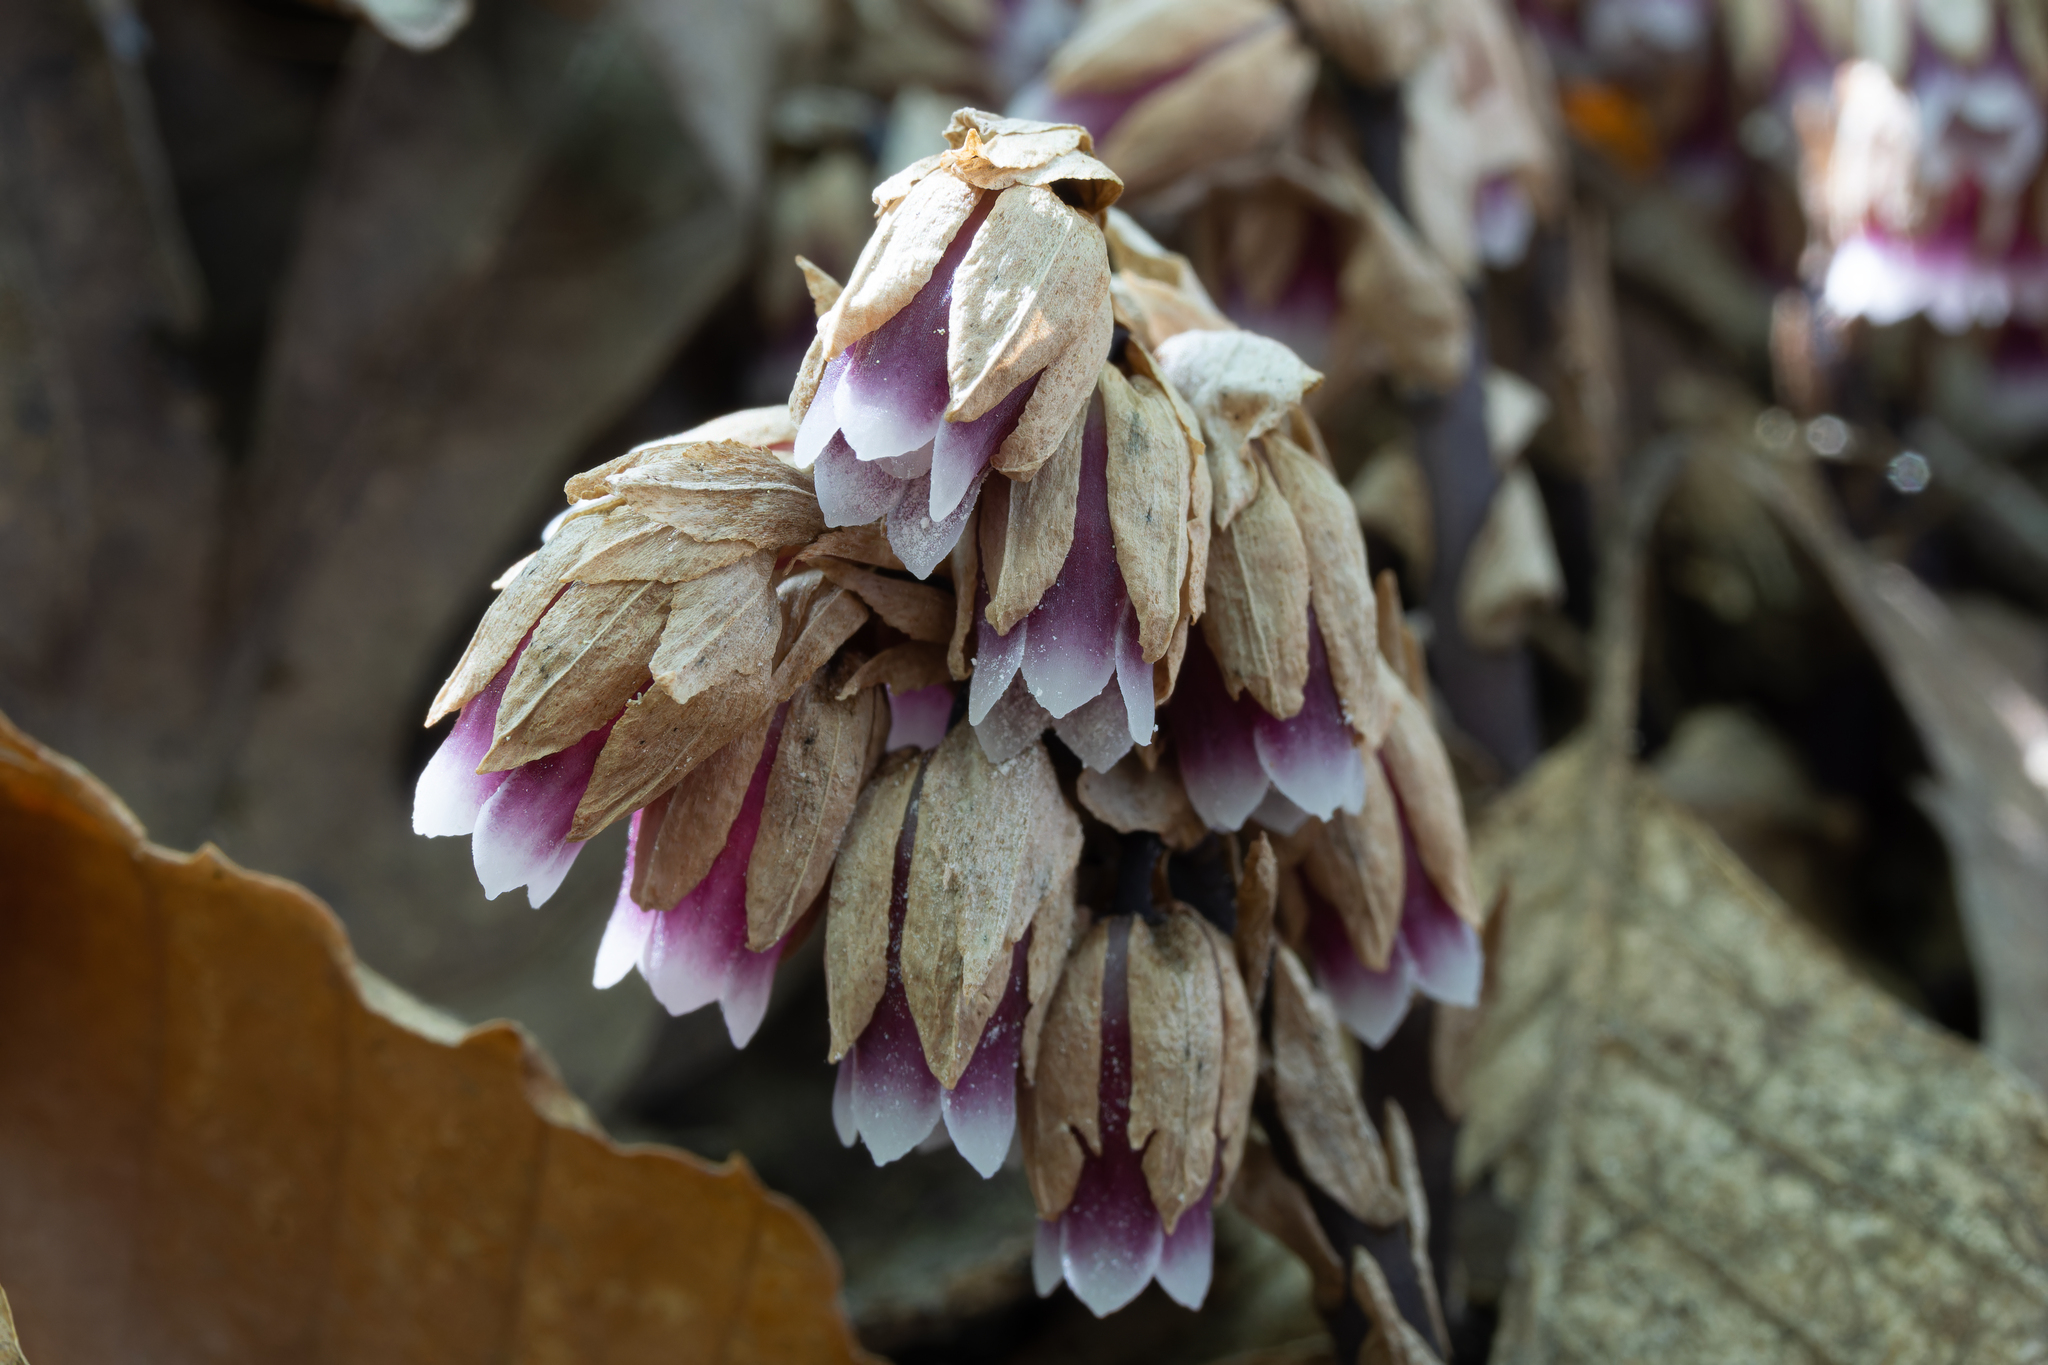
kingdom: Plantae
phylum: Tracheophyta
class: Magnoliopsida
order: Ericales
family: Ericaceae
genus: Monotropsis
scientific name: Monotropsis odorata
